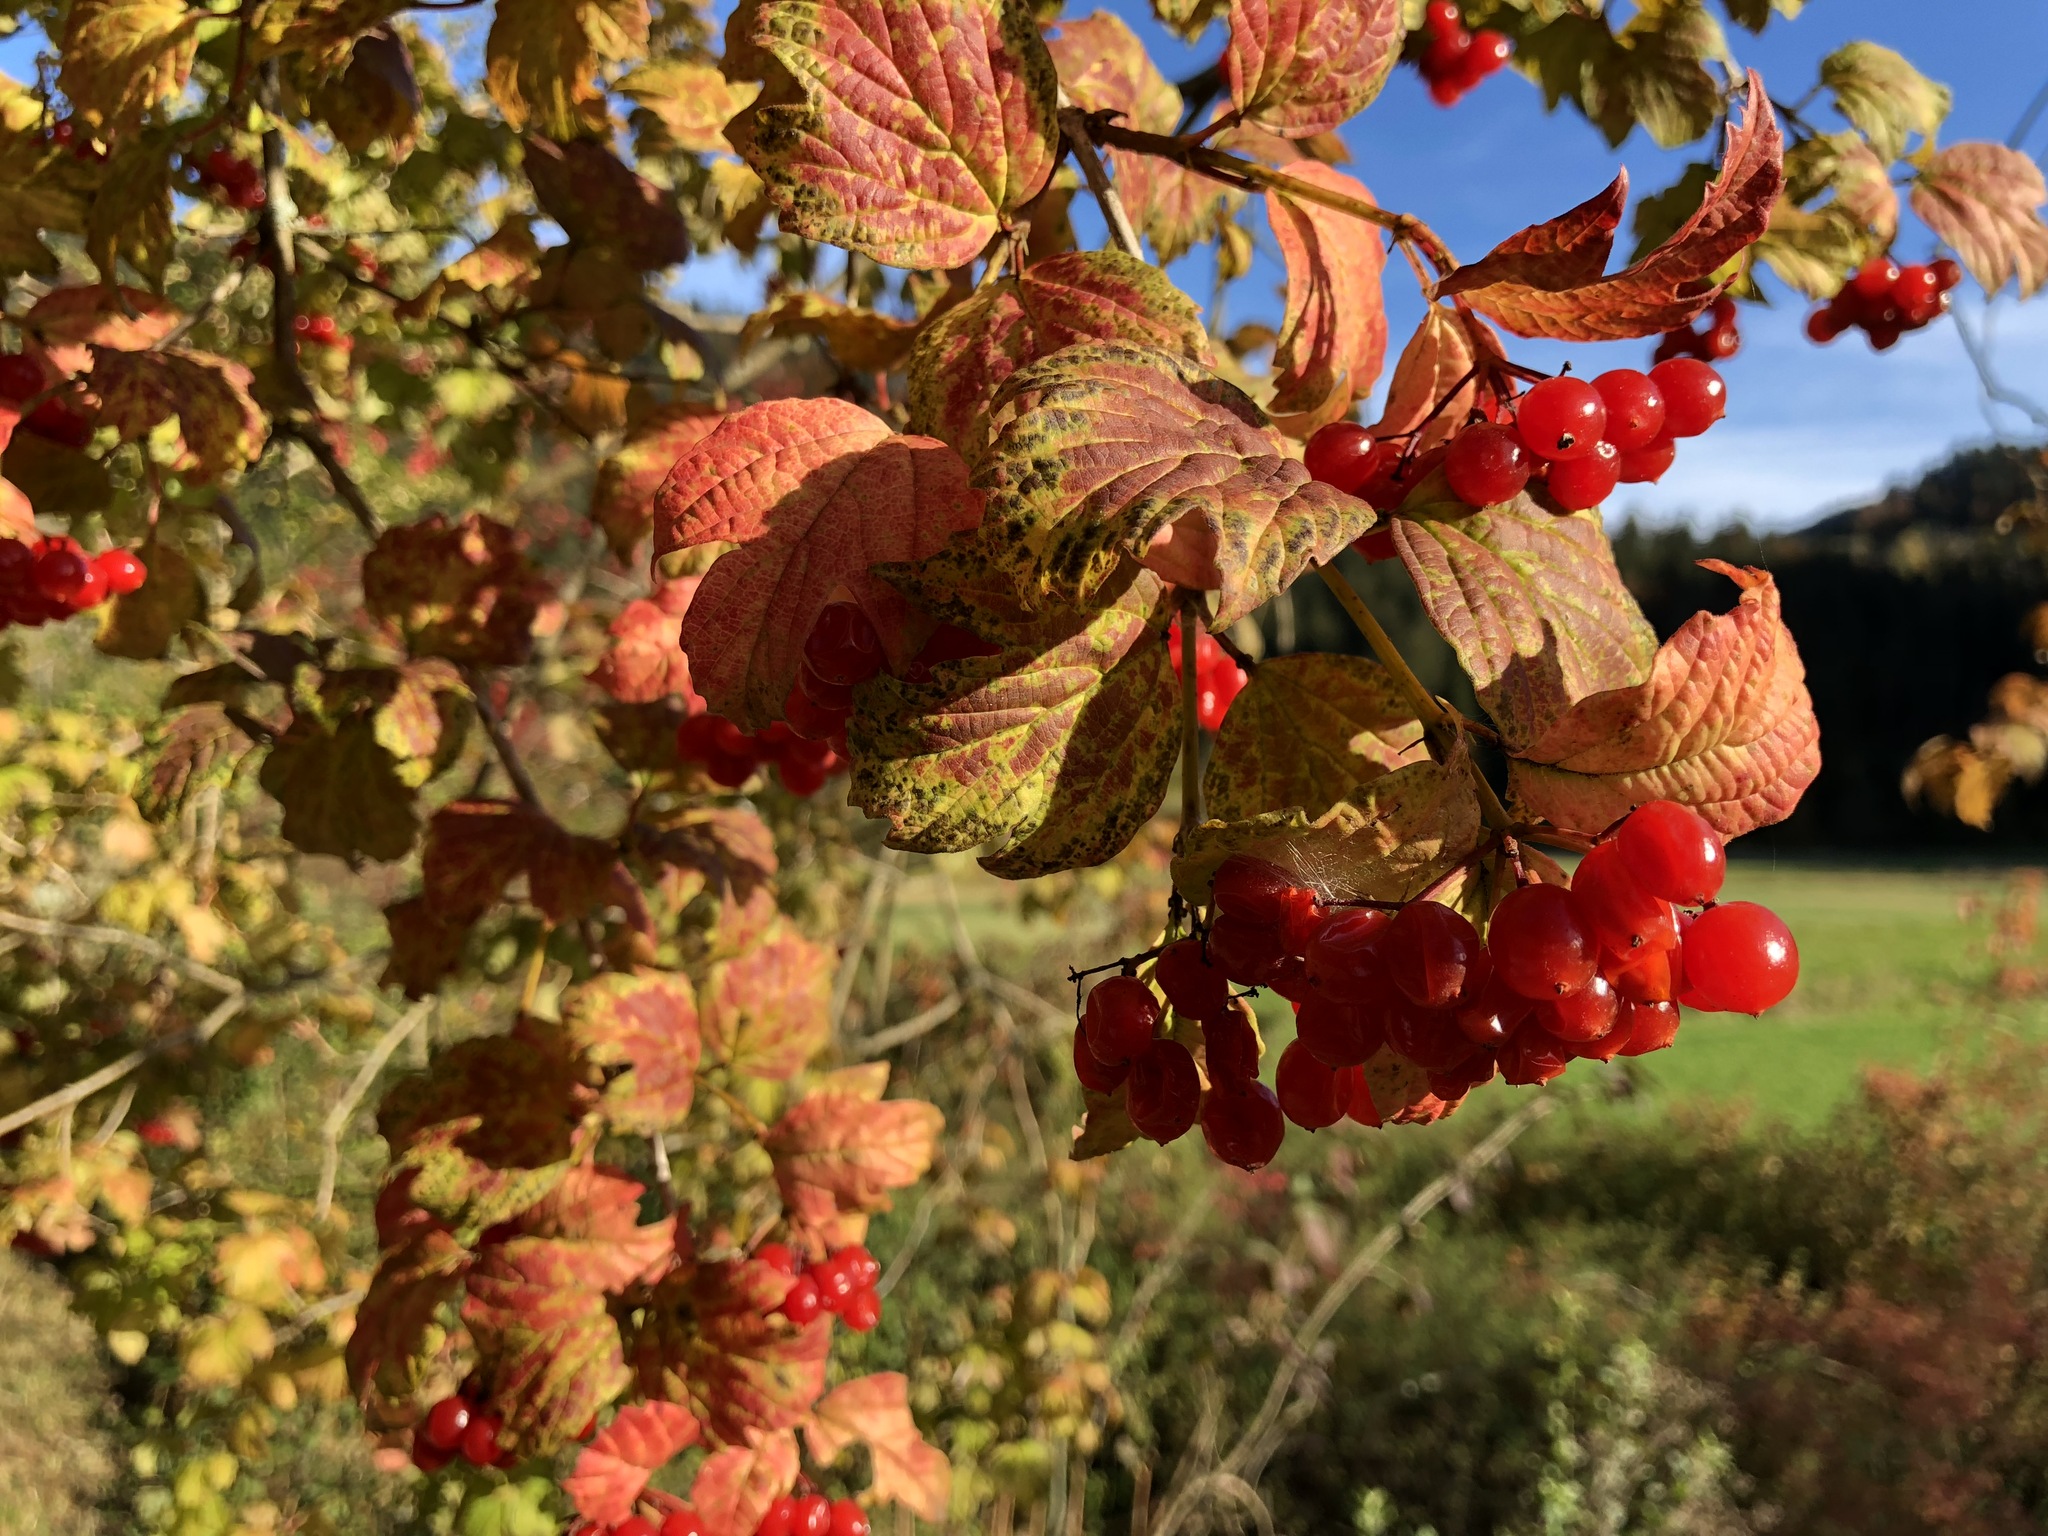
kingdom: Plantae
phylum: Tracheophyta
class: Magnoliopsida
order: Dipsacales
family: Viburnaceae
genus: Viburnum
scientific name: Viburnum opulus
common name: Guelder-rose
